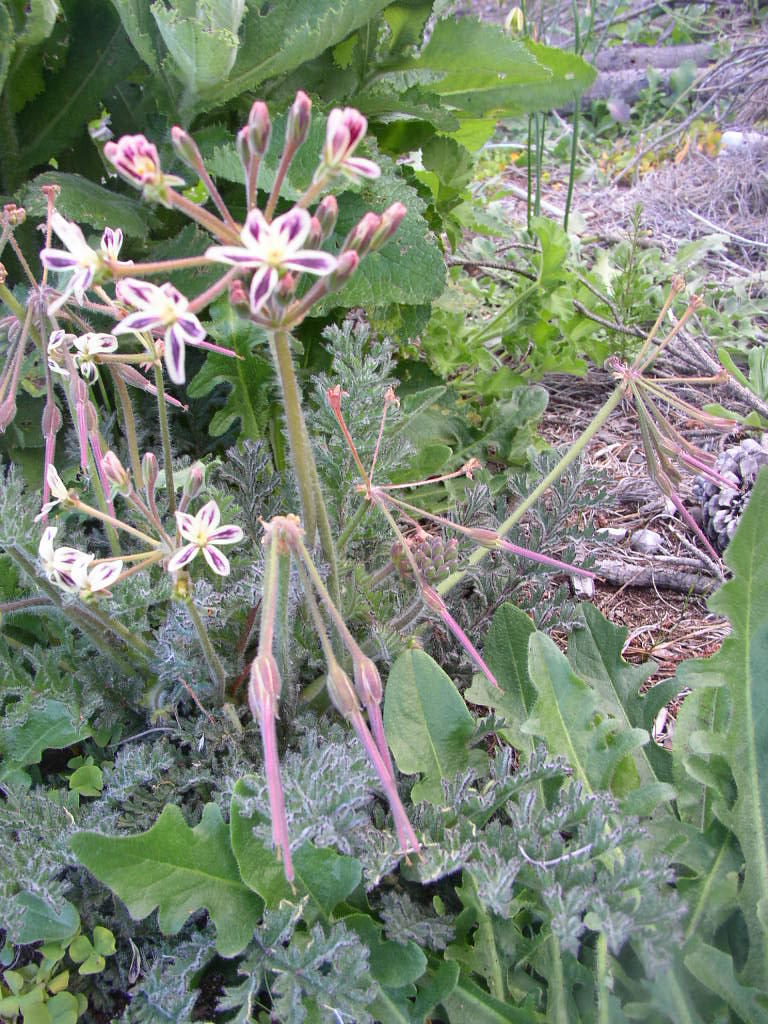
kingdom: Plantae
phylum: Tracheophyta
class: Magnoliopsida
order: Geraniales
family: Geraniaceae
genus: Pelargonium
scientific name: Pelargonium triste
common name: Night-scent pelargonium
